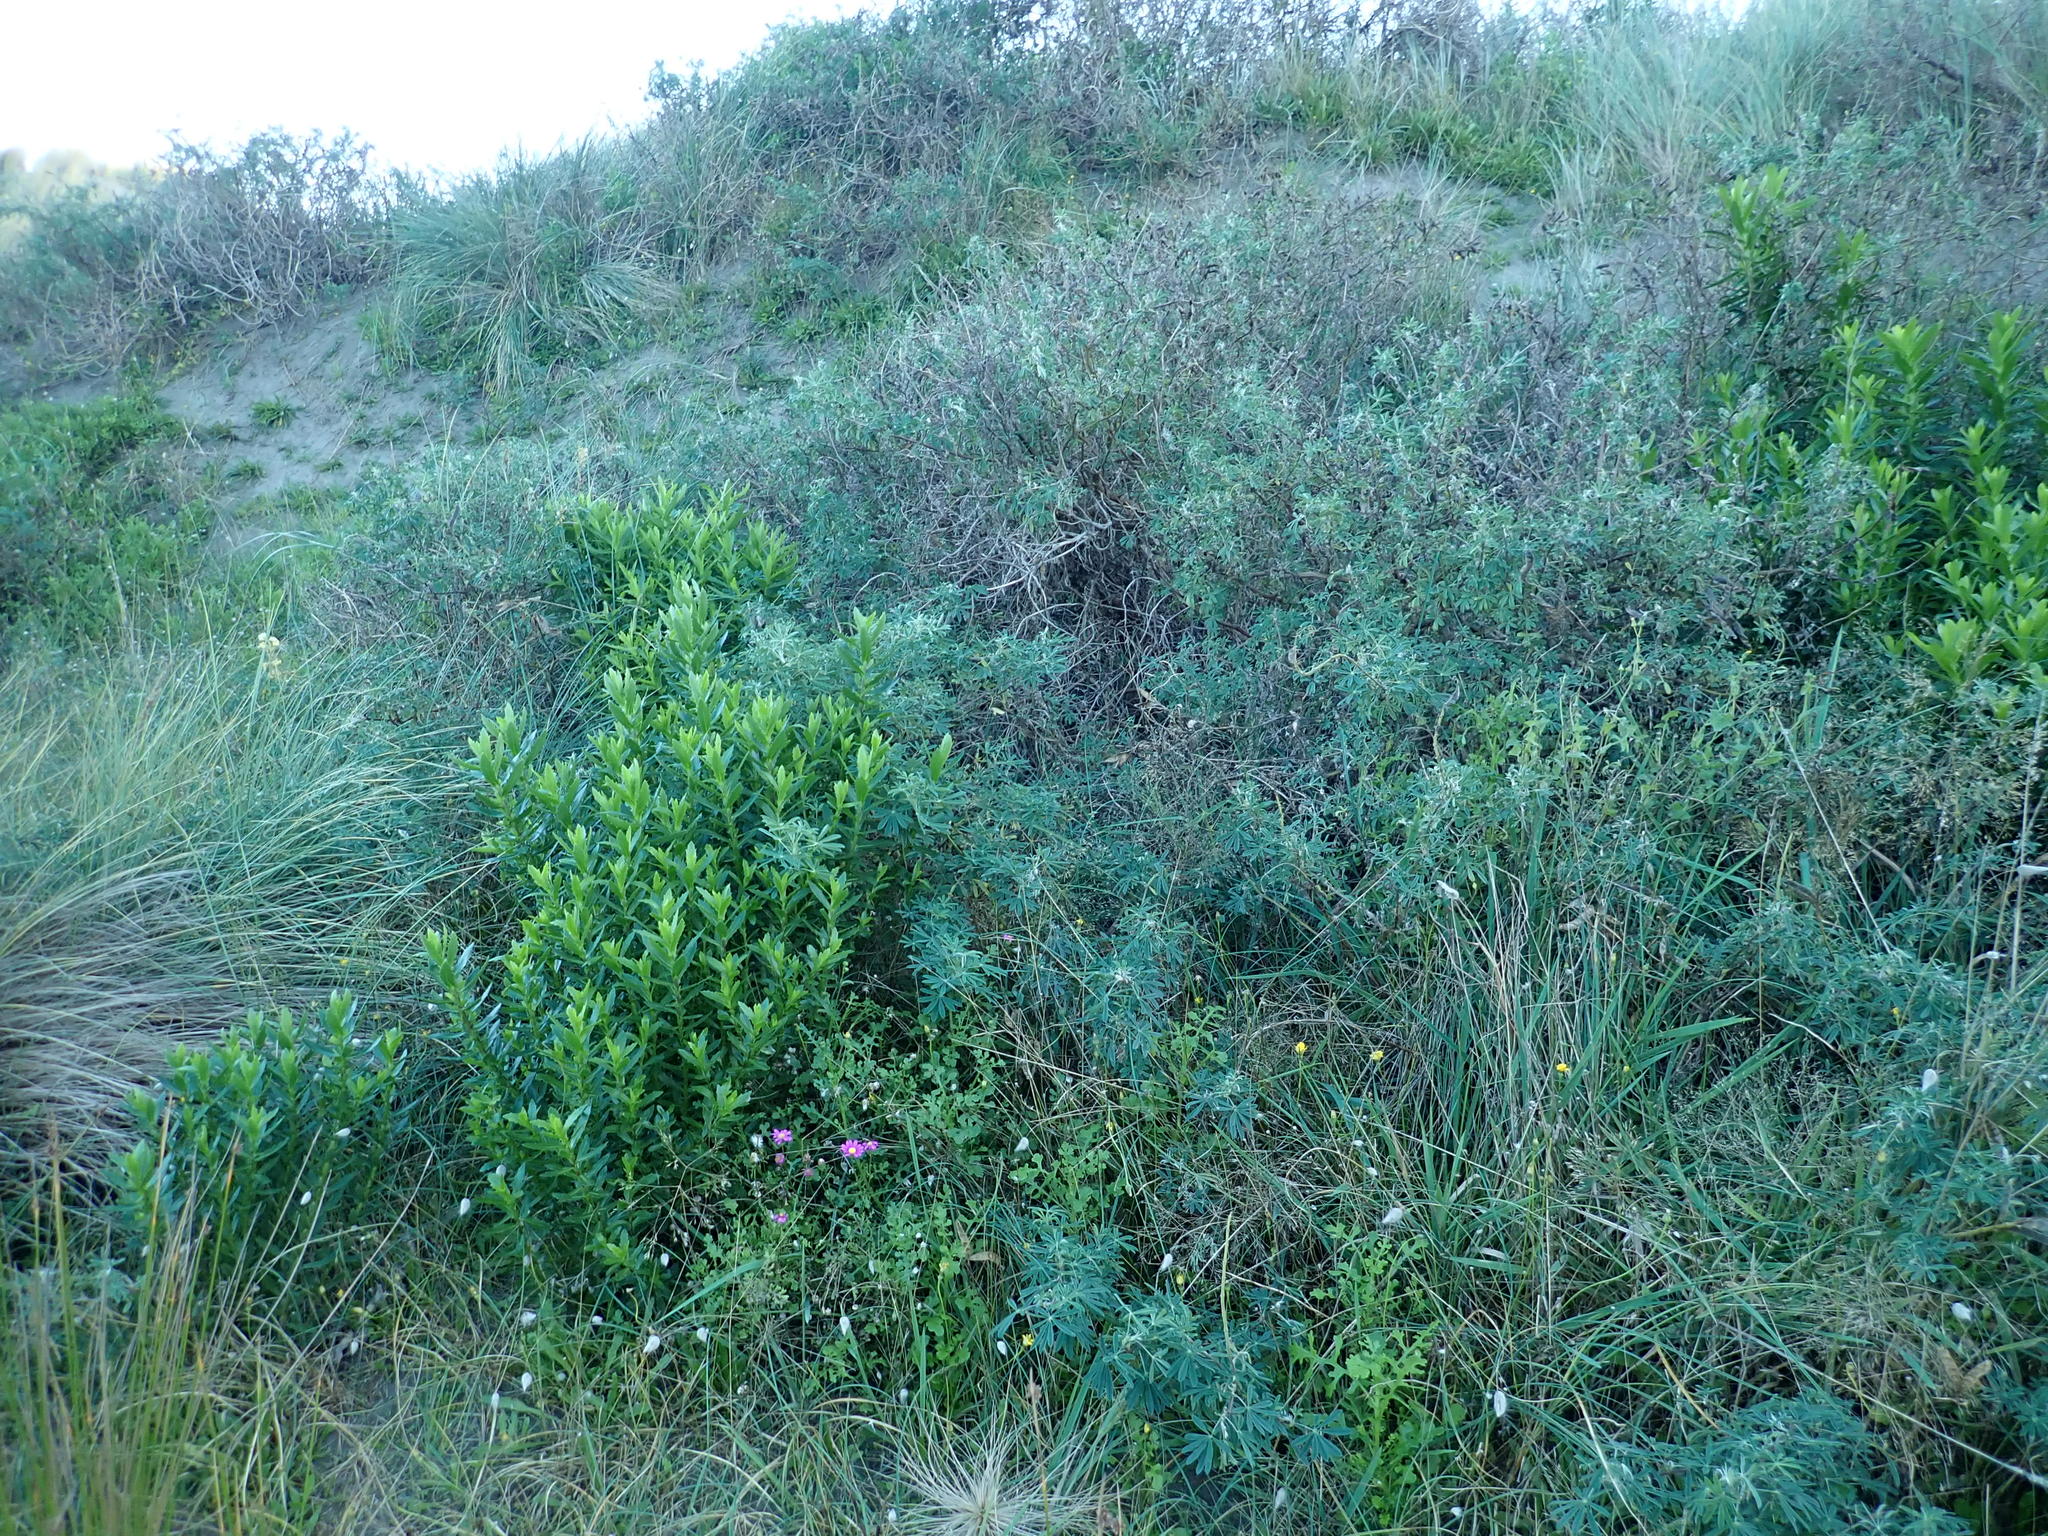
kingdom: Plantae
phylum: Tracheophyta
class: Magnoliopsida
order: Asterales
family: Asteraceae
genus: Senecio
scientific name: Senecio elegans
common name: Purple groundsel
